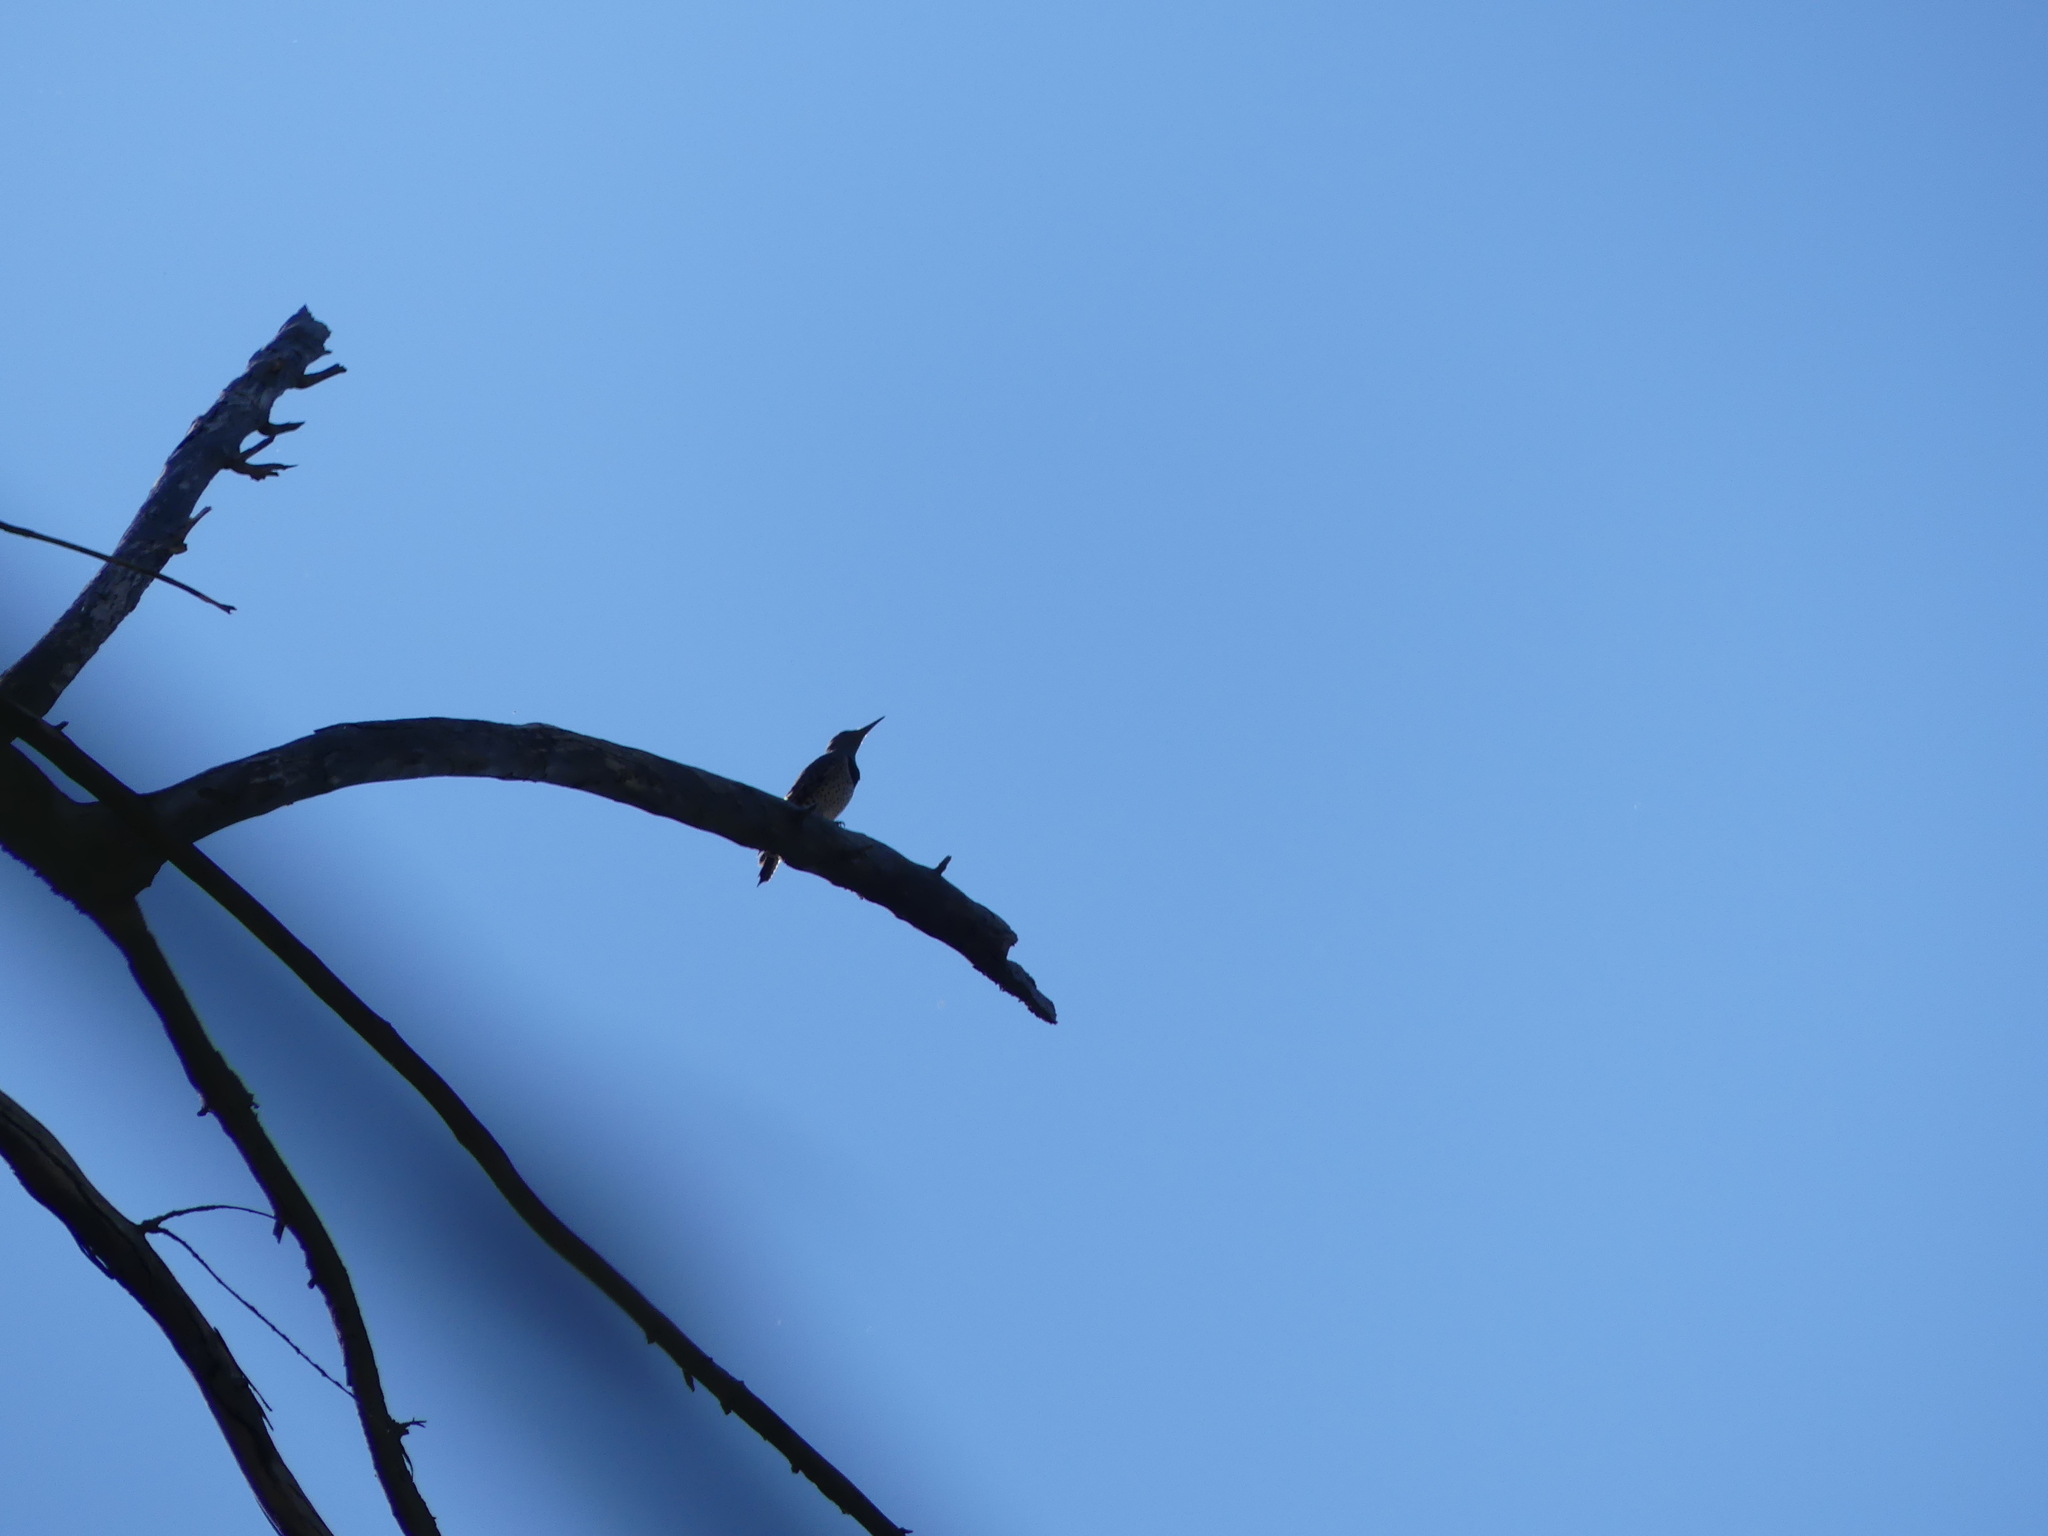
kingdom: Animalia
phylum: Chordata
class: Aves
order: Piciformes
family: Picidae
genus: Colaptes
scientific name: Colaptes auratus
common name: Northern flicker
